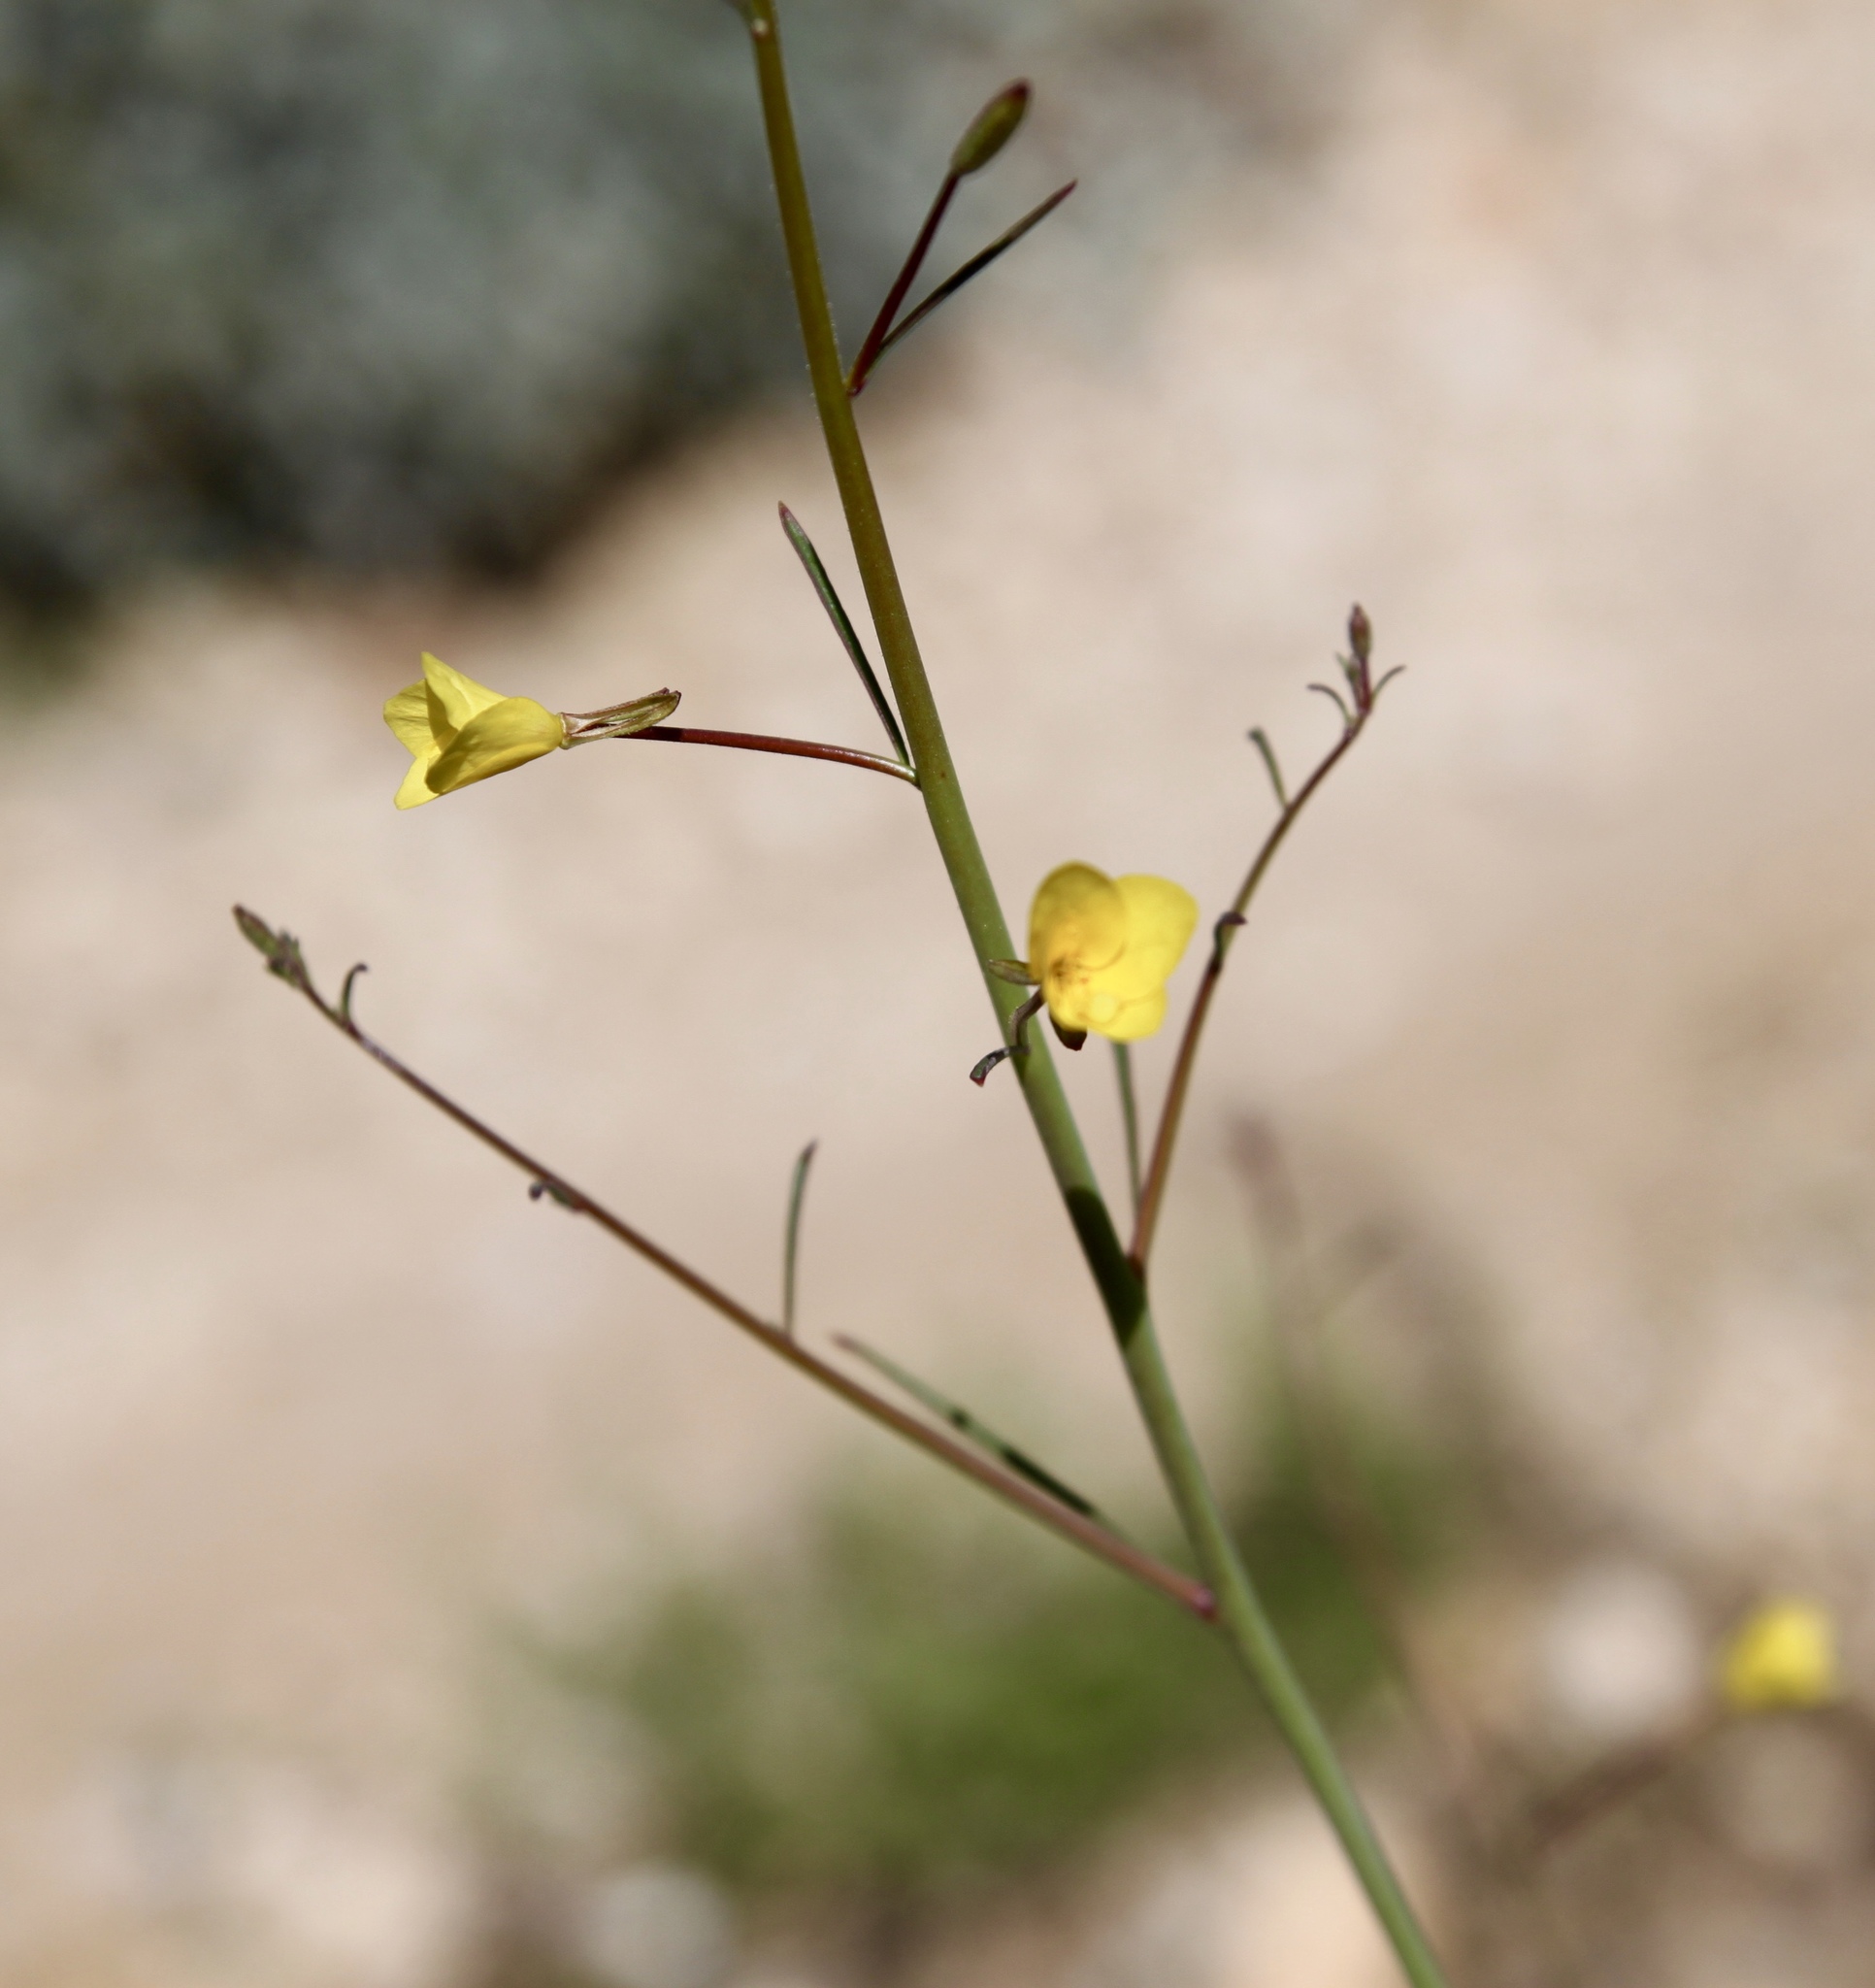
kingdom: Plantae
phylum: Tracheophyta
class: Magnoliopsida
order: Myrtales
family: Onagraceae
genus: Eulobus
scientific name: Eulobus californicus
